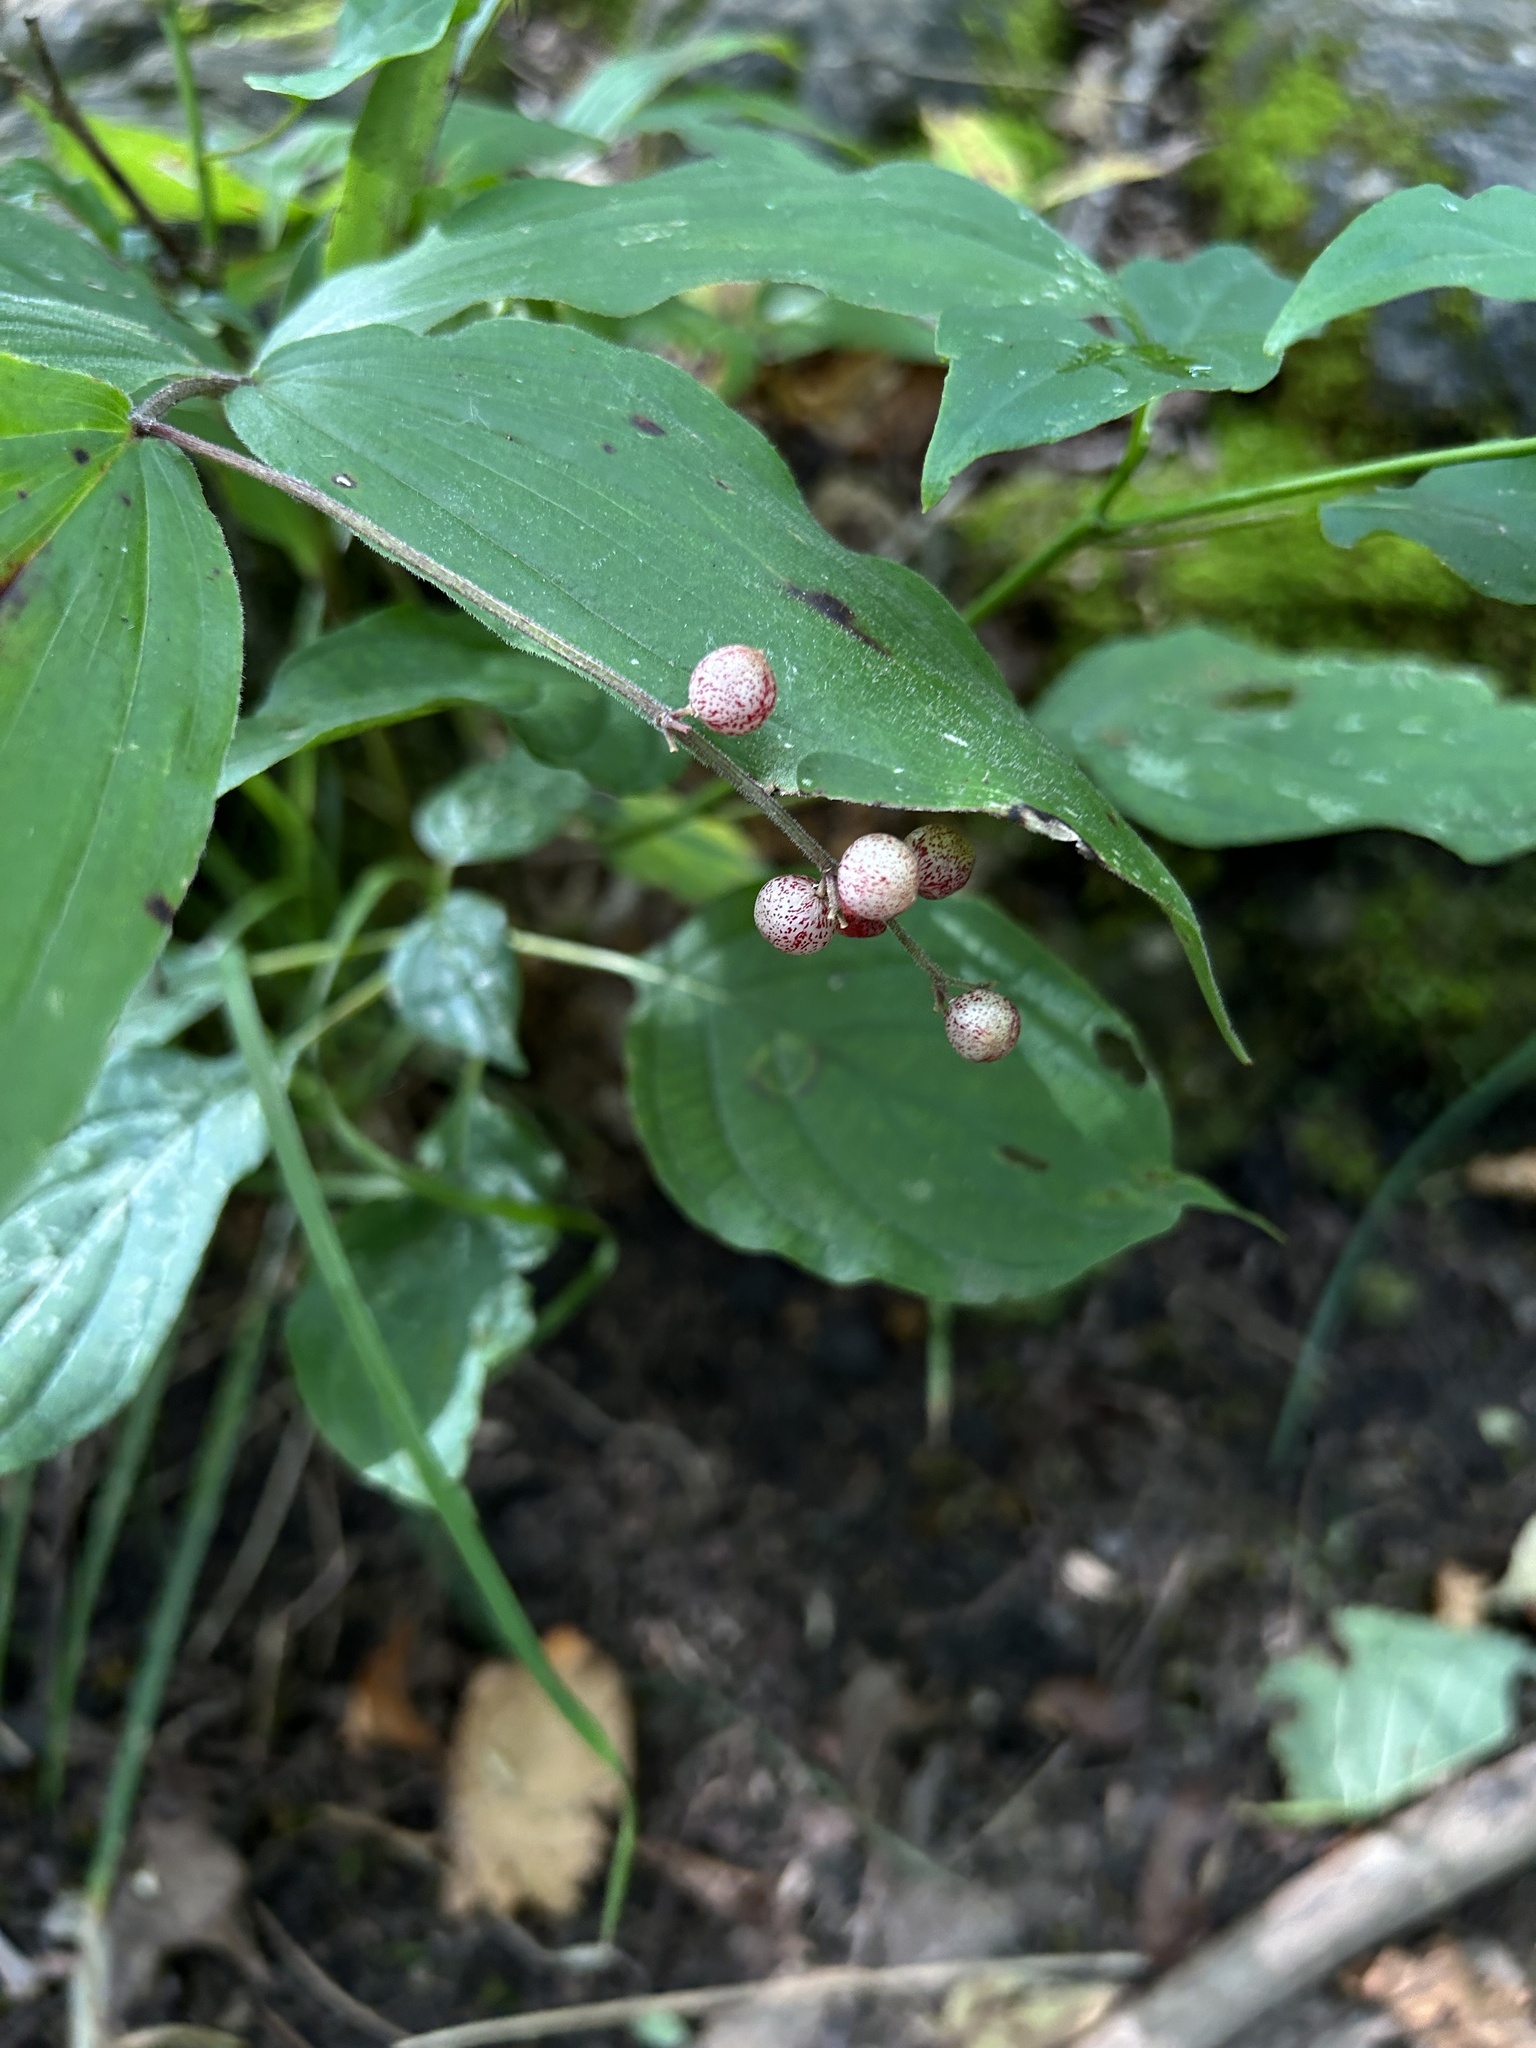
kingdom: Plantae
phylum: Tracheophyta
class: Liliopsida
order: Asparagales
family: Asparagaceae
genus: Maianthemum
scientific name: Maianthemum racemosum
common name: False spikenard
